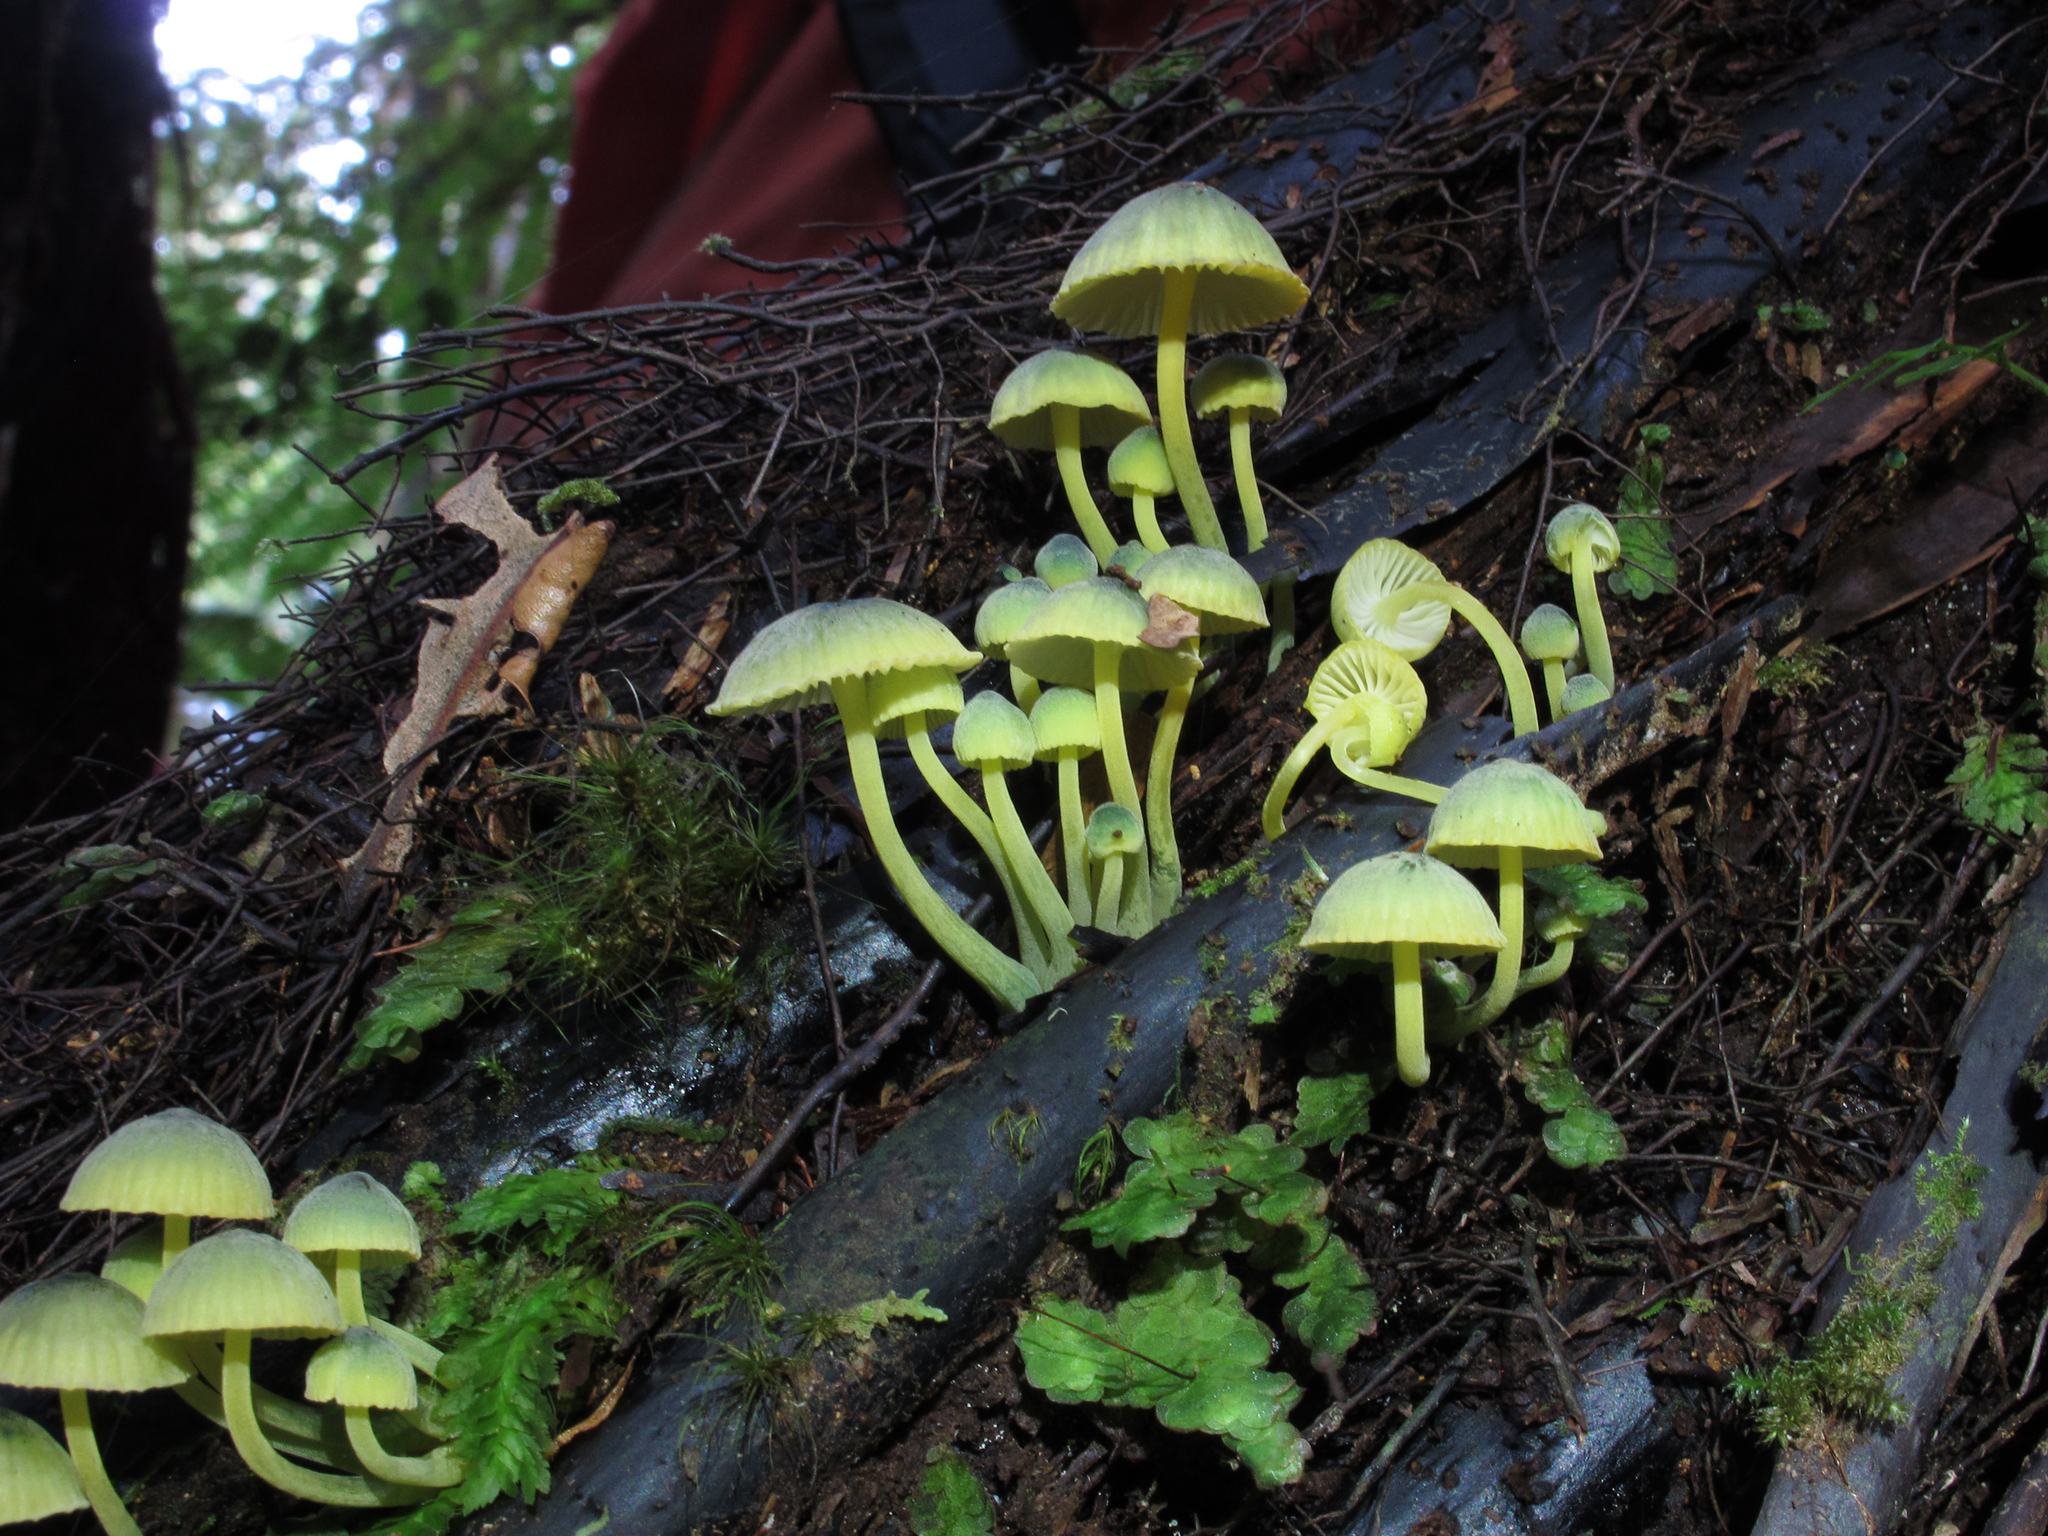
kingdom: Fungi
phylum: Basidiomycota
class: Agaricomycetes
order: Agaricales
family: Mycenaceae
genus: Insiticia
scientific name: Insiticia flavovirens
